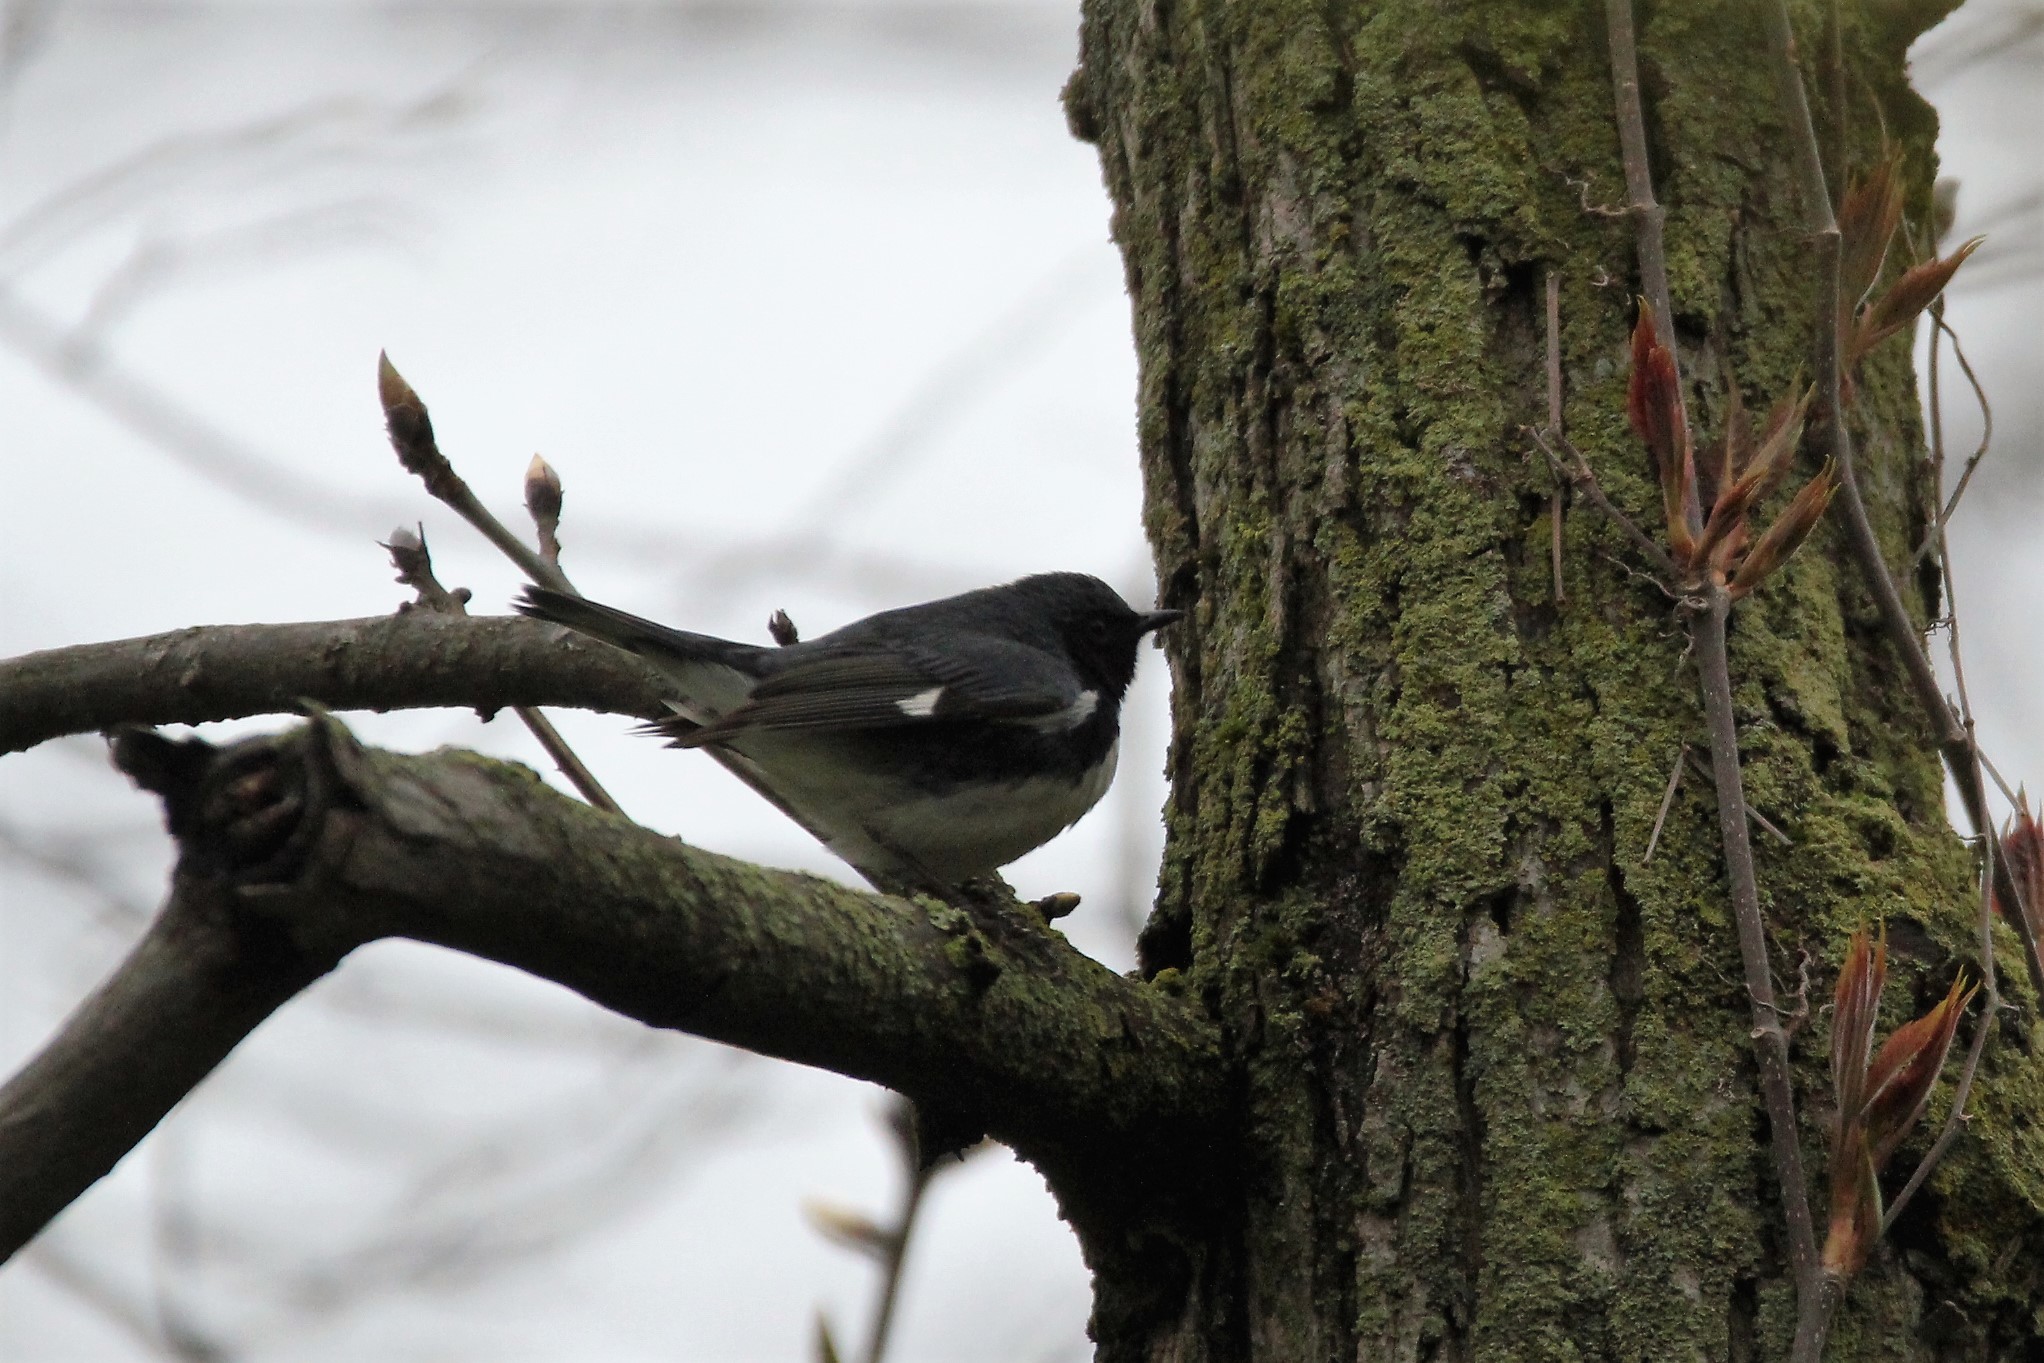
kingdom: Animalia
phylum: Chordata
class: Aves
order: Passeriformes
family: Parulidae
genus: Setophaga
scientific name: Setophaga caerulescens
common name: Black-throated blue warbler
